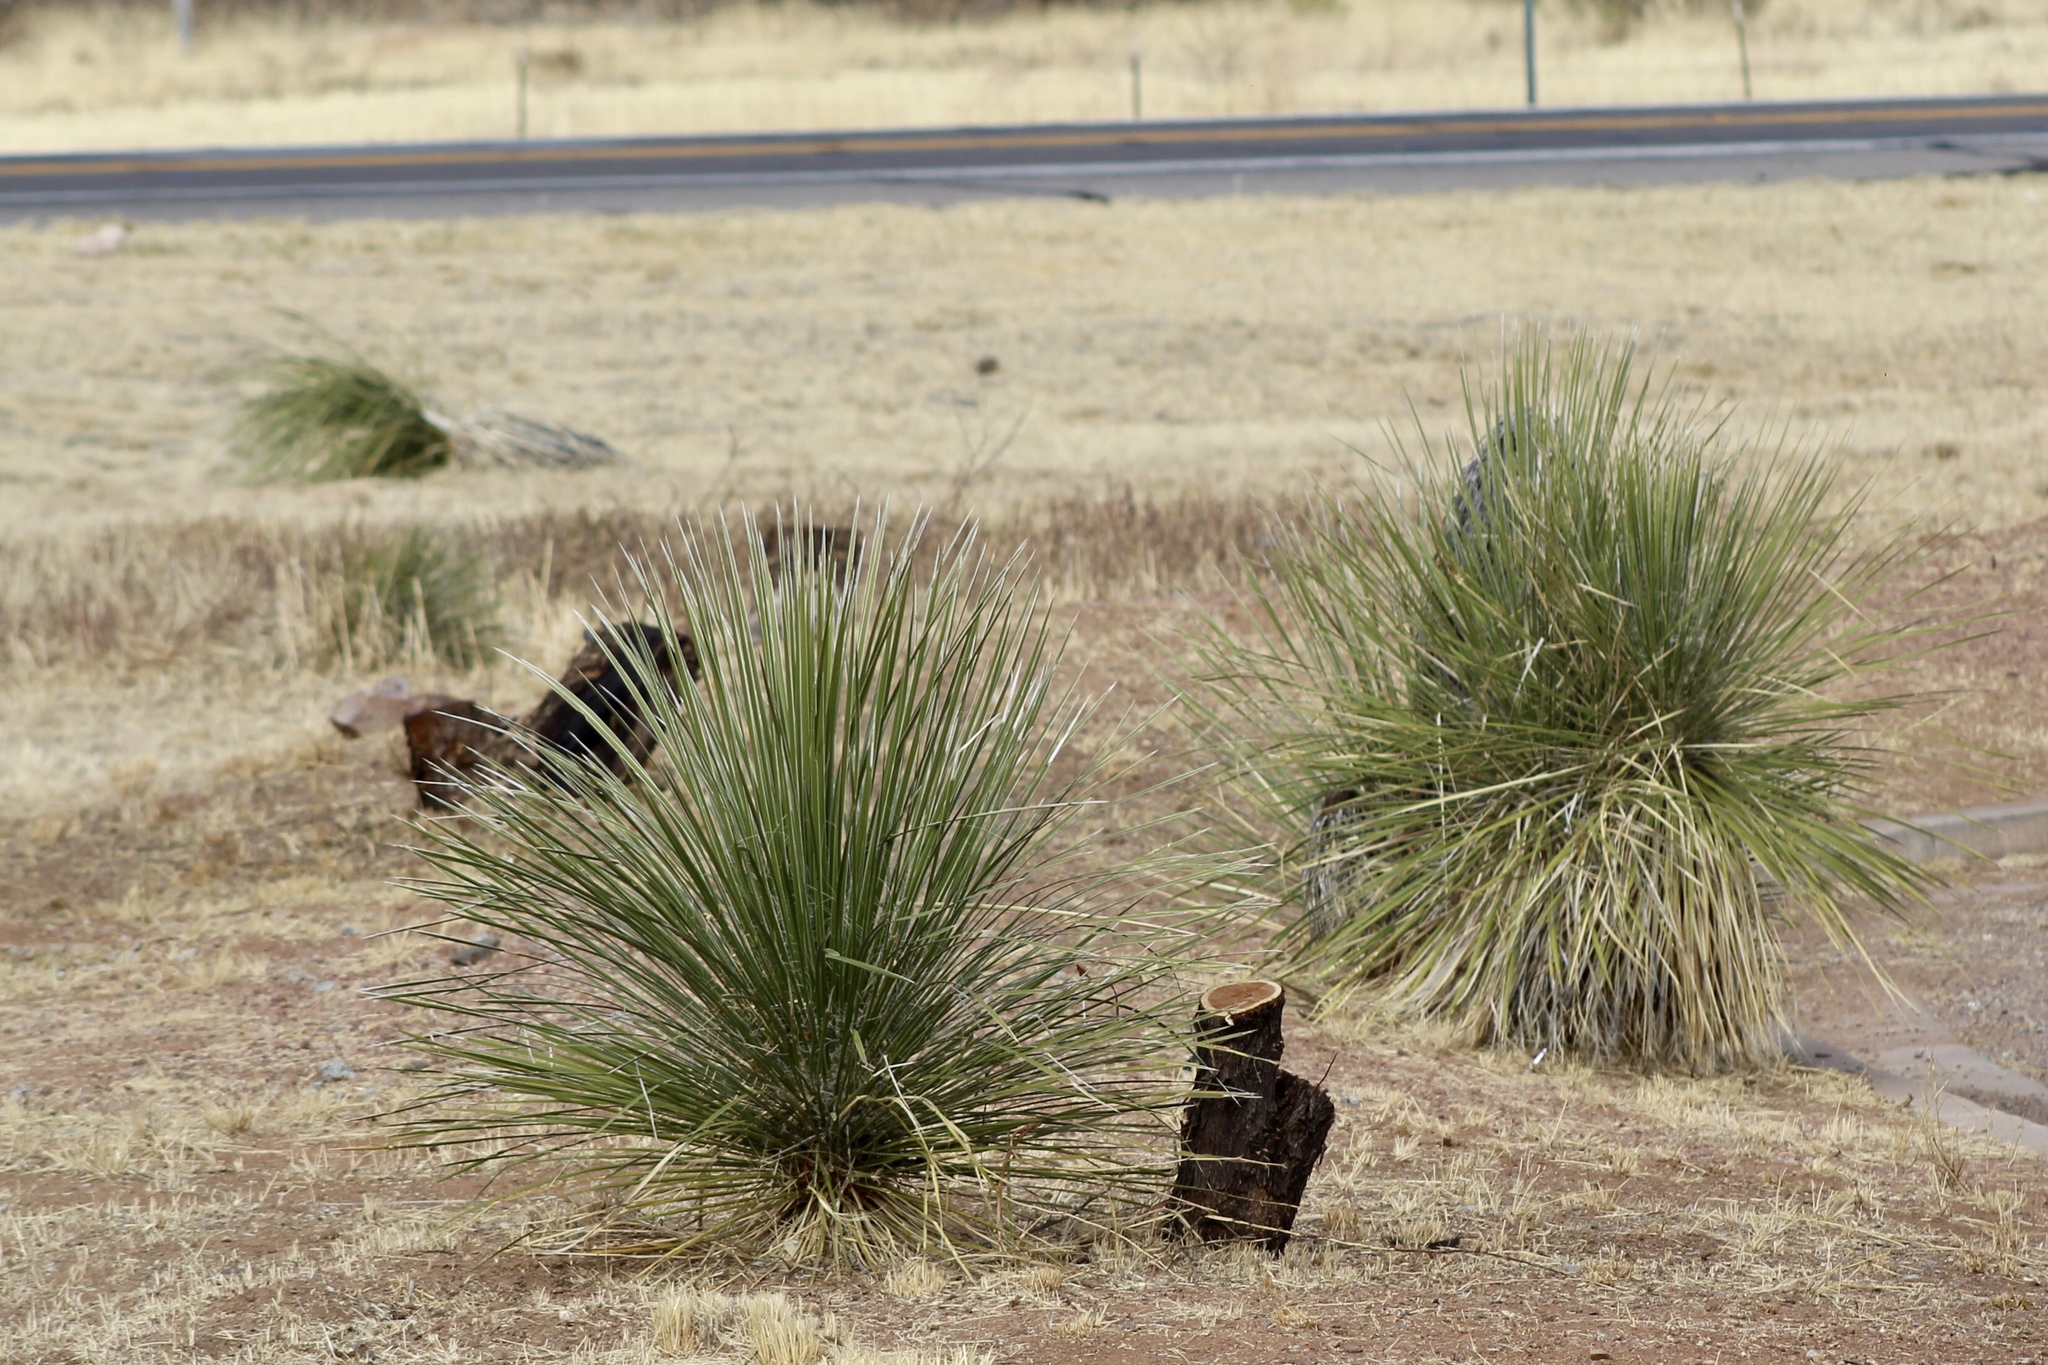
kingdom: Plantae
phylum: Tracheophyta
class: Liliopsida
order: Asparagales
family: Asparagaceae
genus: Yucca
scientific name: Yucca elata
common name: Palmella
